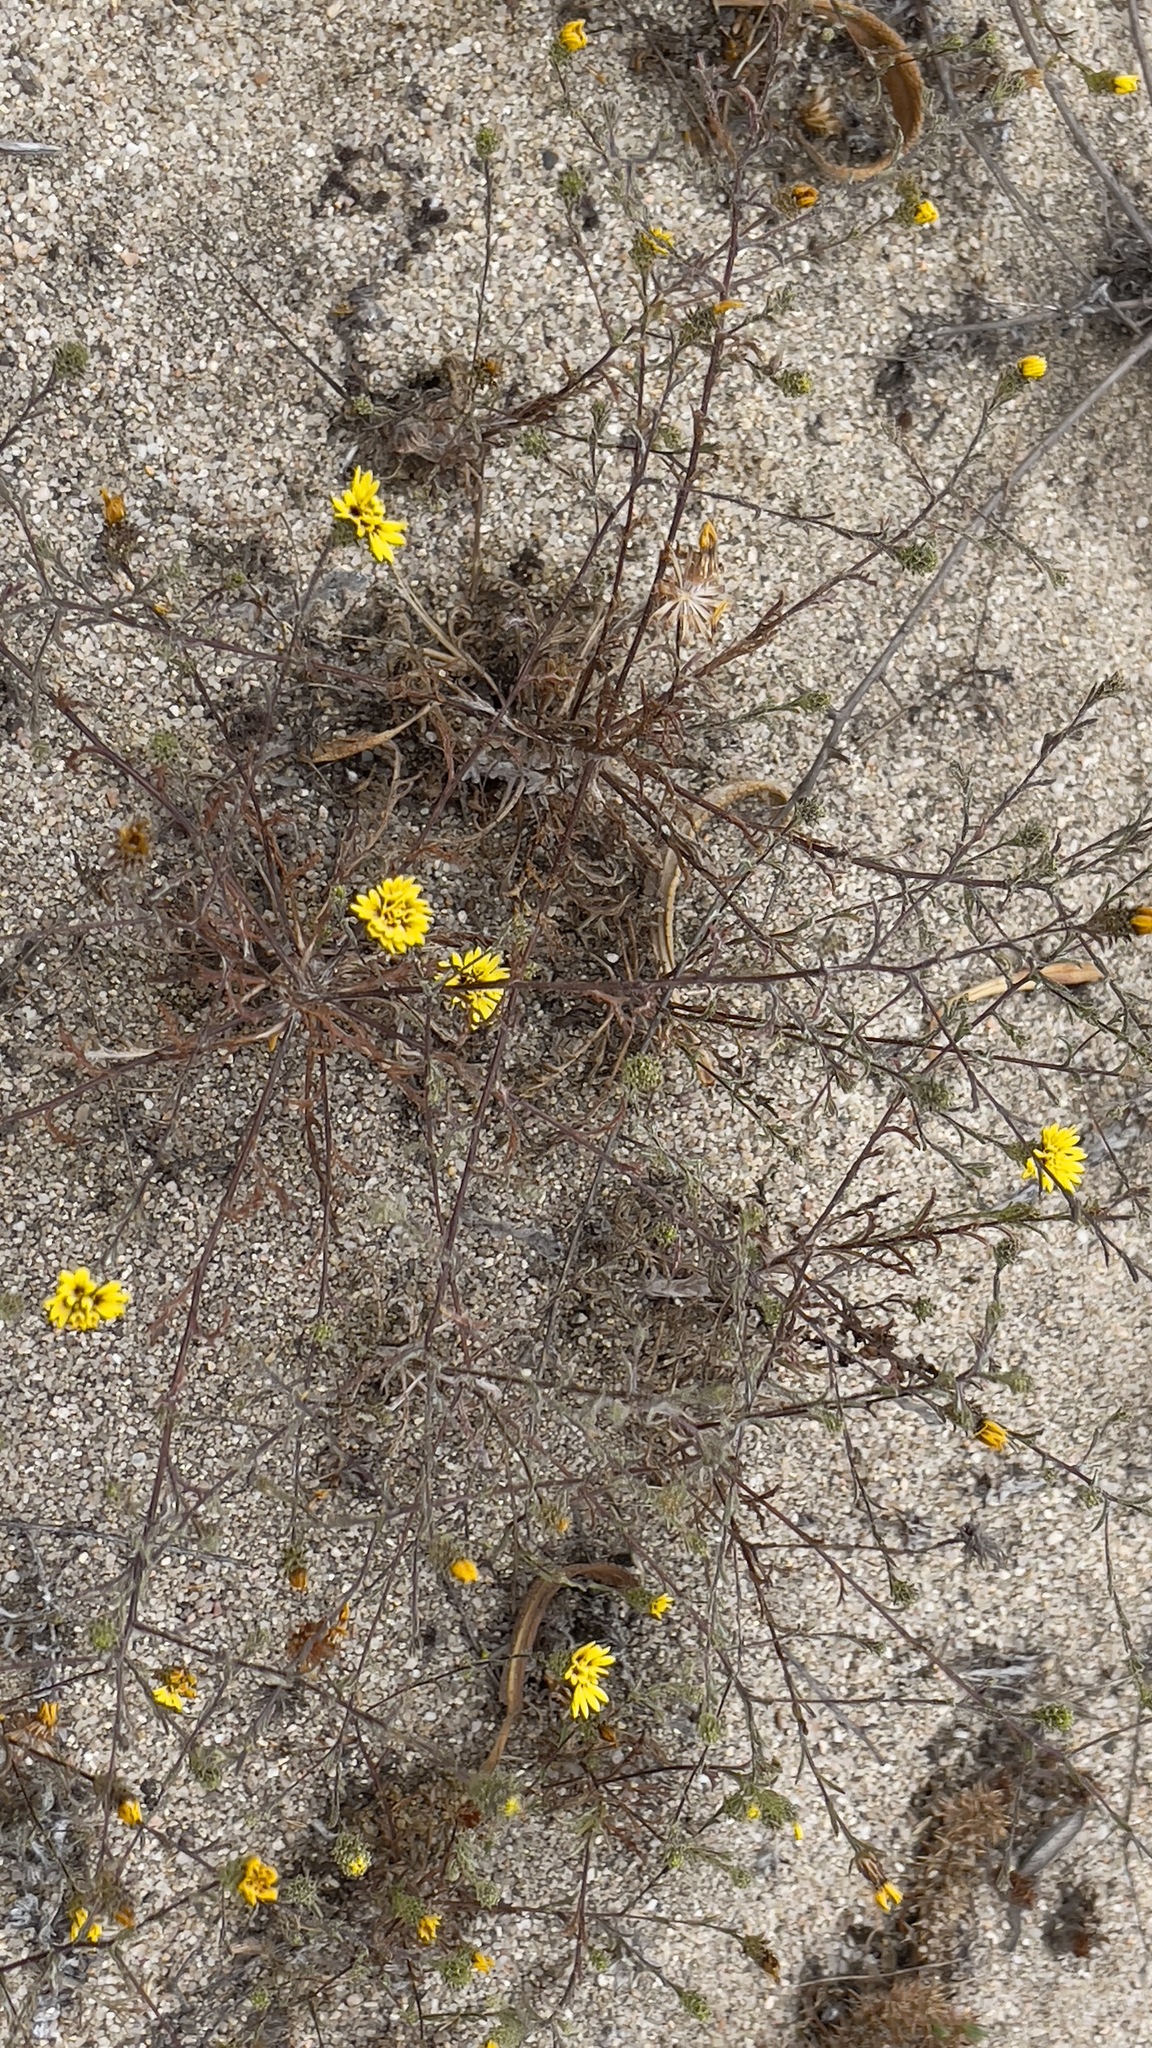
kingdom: Plantae
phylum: Tracheophyta
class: Magnoliopsida
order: Asterales
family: Asteraceae
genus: Lessingia
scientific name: Lessingia pectinata
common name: Valley lessingia
